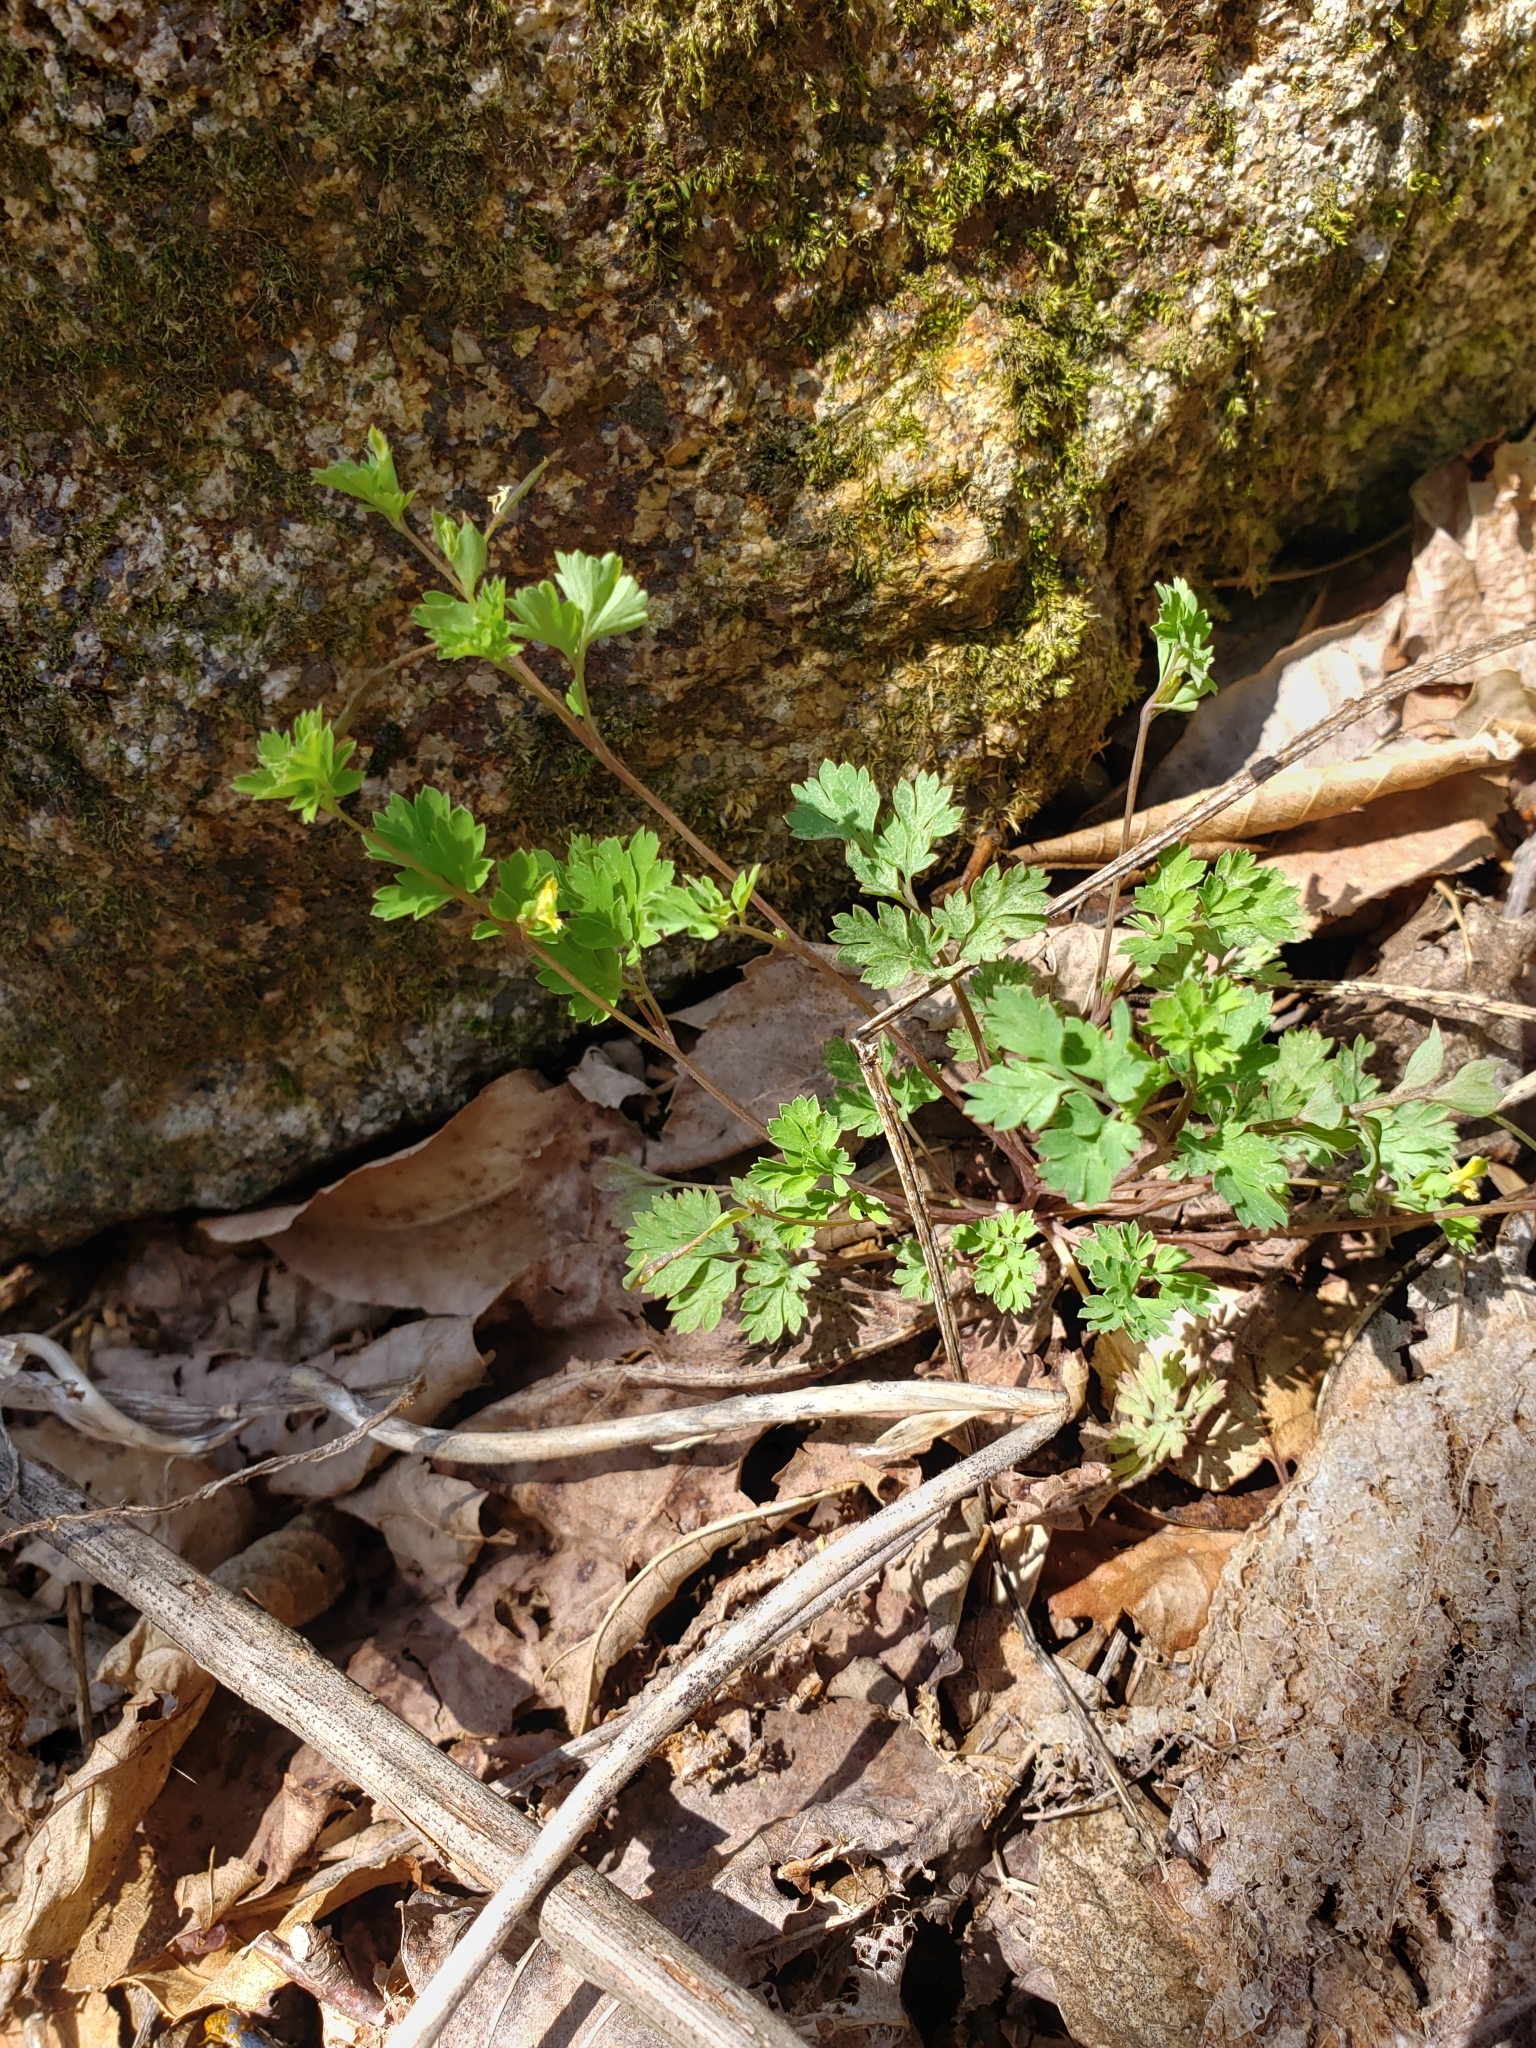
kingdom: Plantae
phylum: Tracheophyta
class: Magnoliopsida
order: Ranunculales
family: Papaveraceae
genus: Corydalis
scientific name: Corydalis flavula
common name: Yellow corydalis
